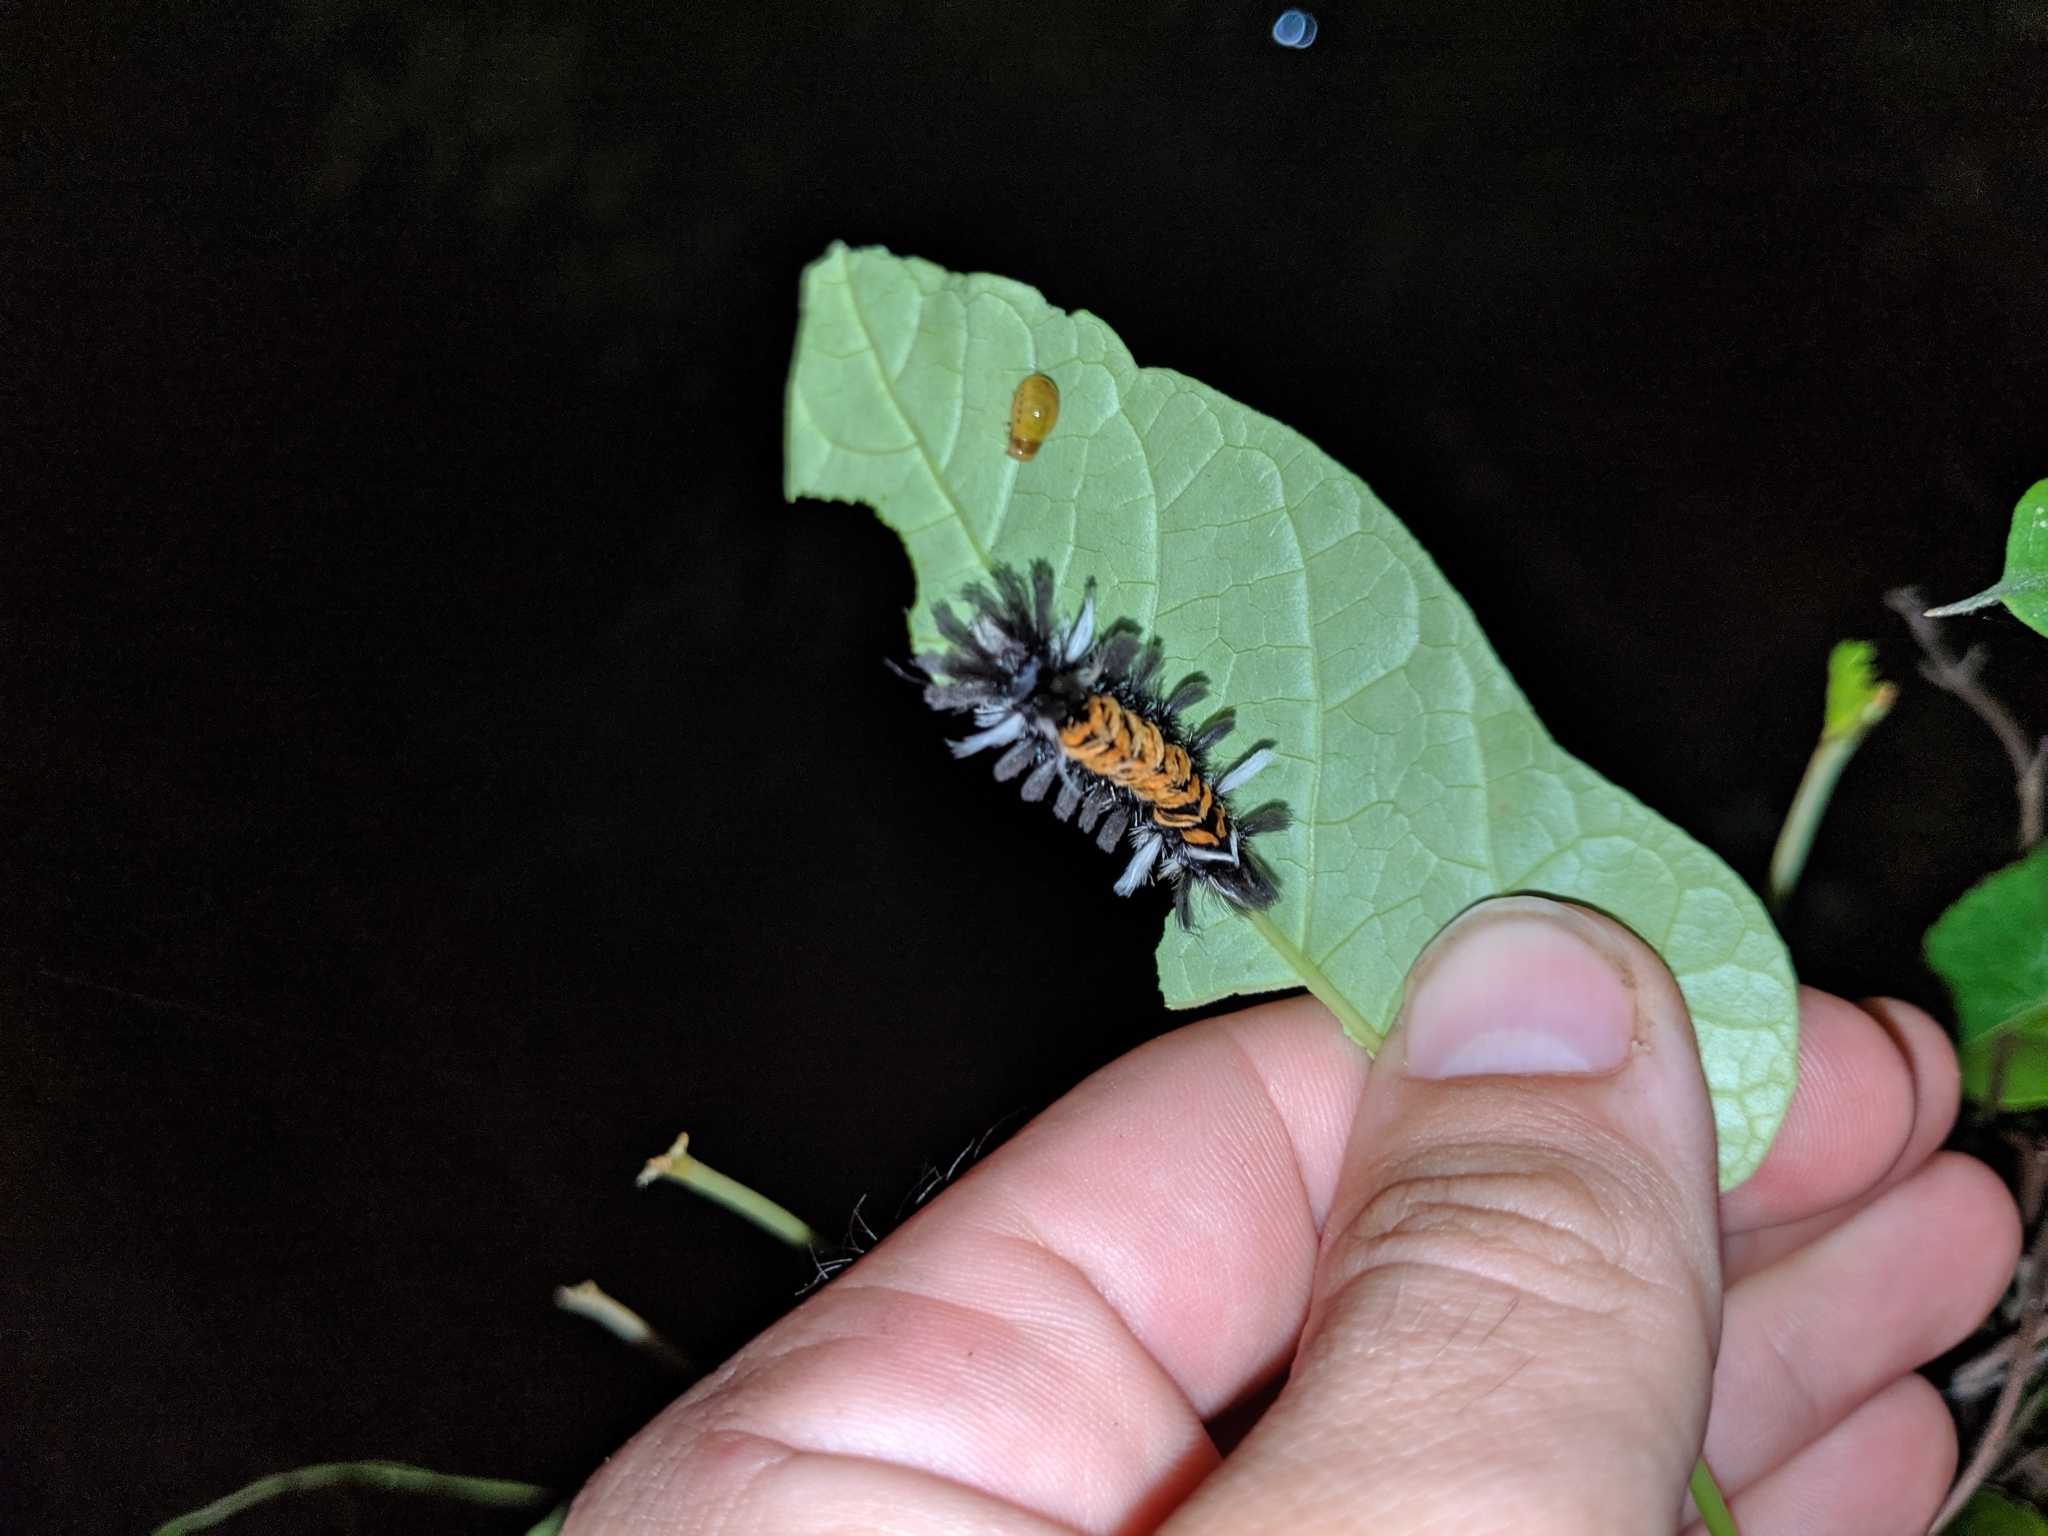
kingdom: Animalia
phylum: Arthropoda
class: Insecta
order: Lepidoptera
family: Erebidae
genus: Euchaetes
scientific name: Euchaetes egle
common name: Milkweed tussock moth
